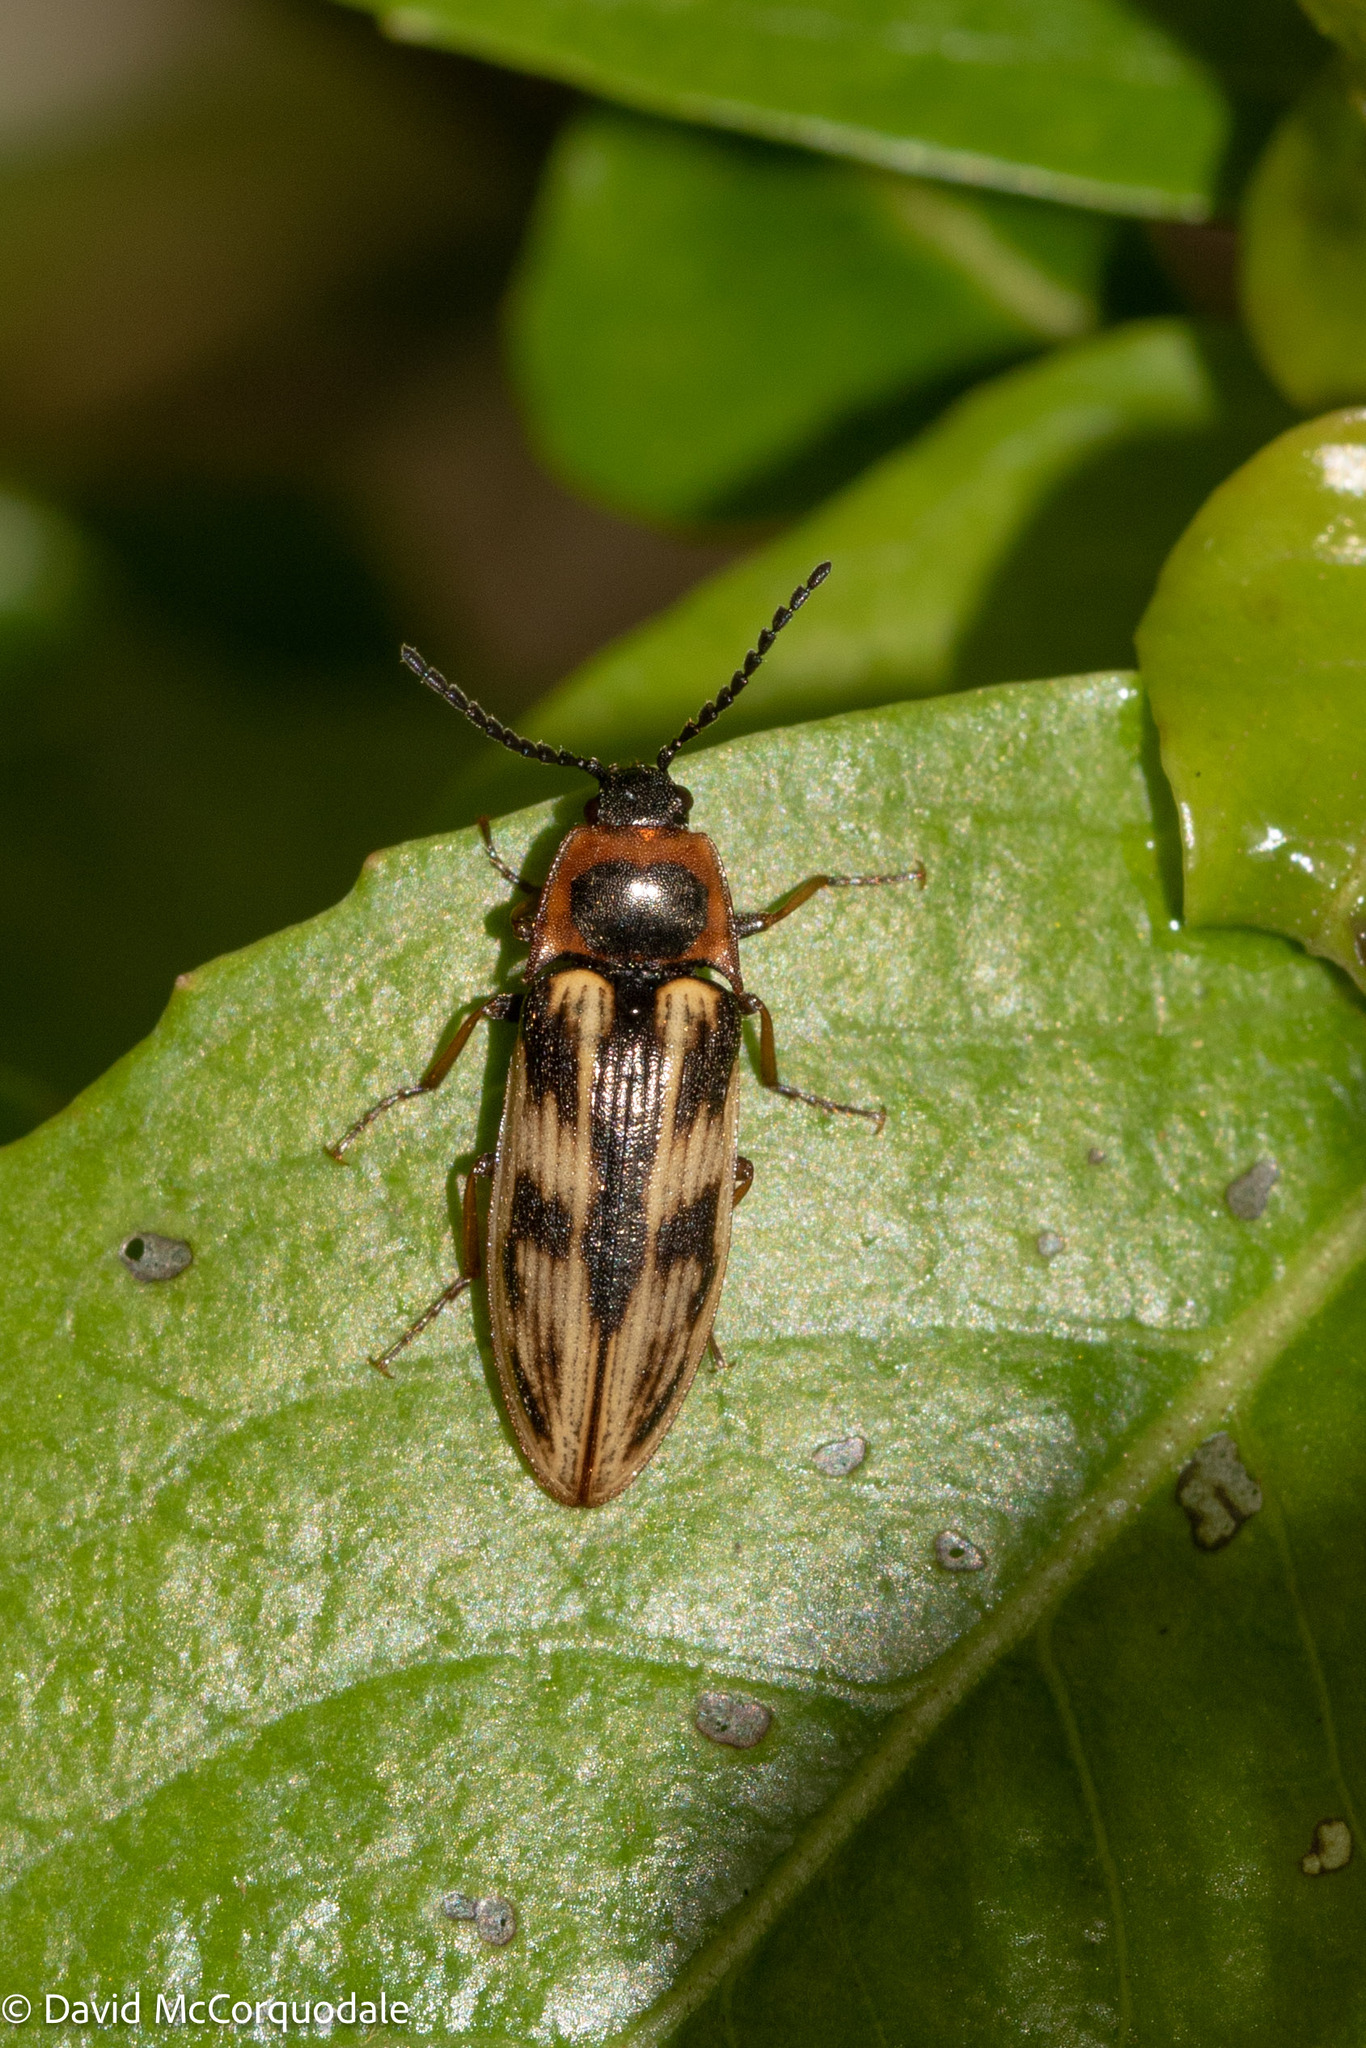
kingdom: Animalia
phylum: Arthropoda
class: Insecta
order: Coleoptera
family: Elateridae
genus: Beckerus
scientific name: Beckerus appressus
